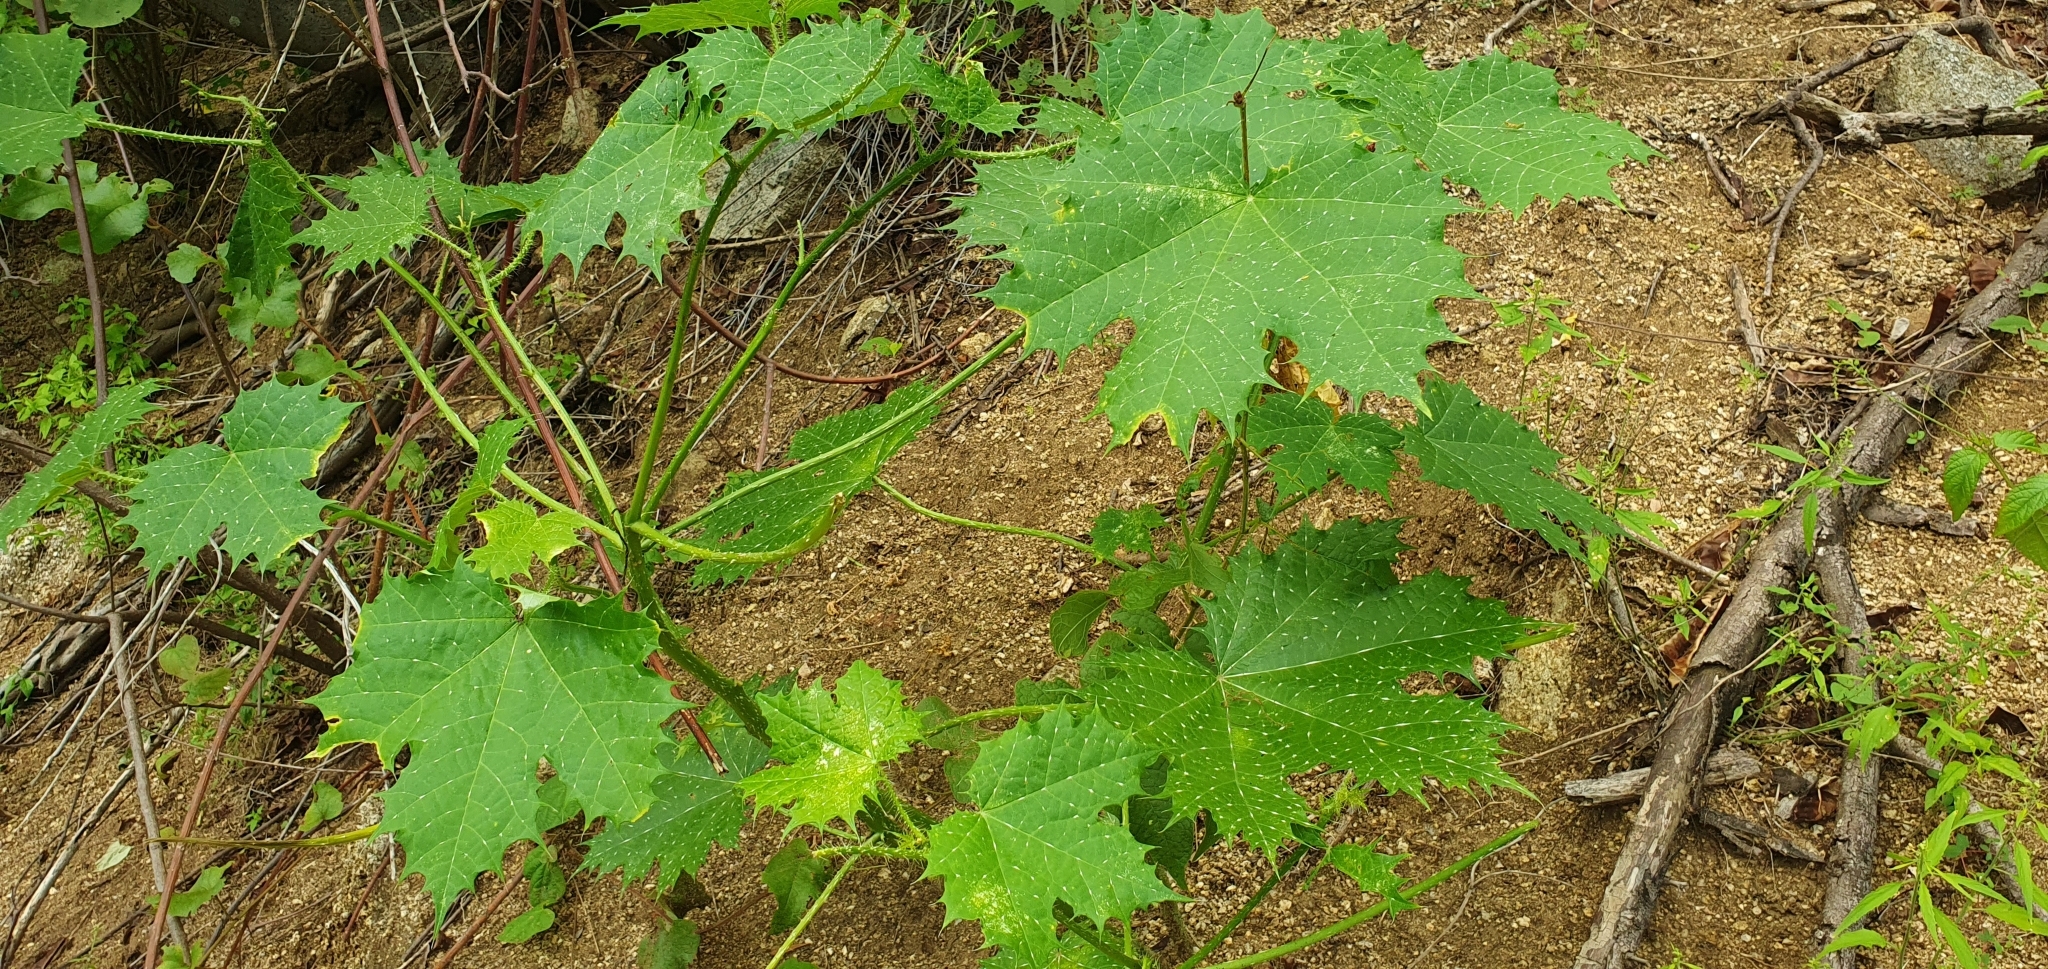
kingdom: Plantae
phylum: Tracheophyta
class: Magnoliopsida
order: Malpighiales
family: Euphorbiaceae
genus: Cnidoscolus
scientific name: Cnidoscolus maculatus
